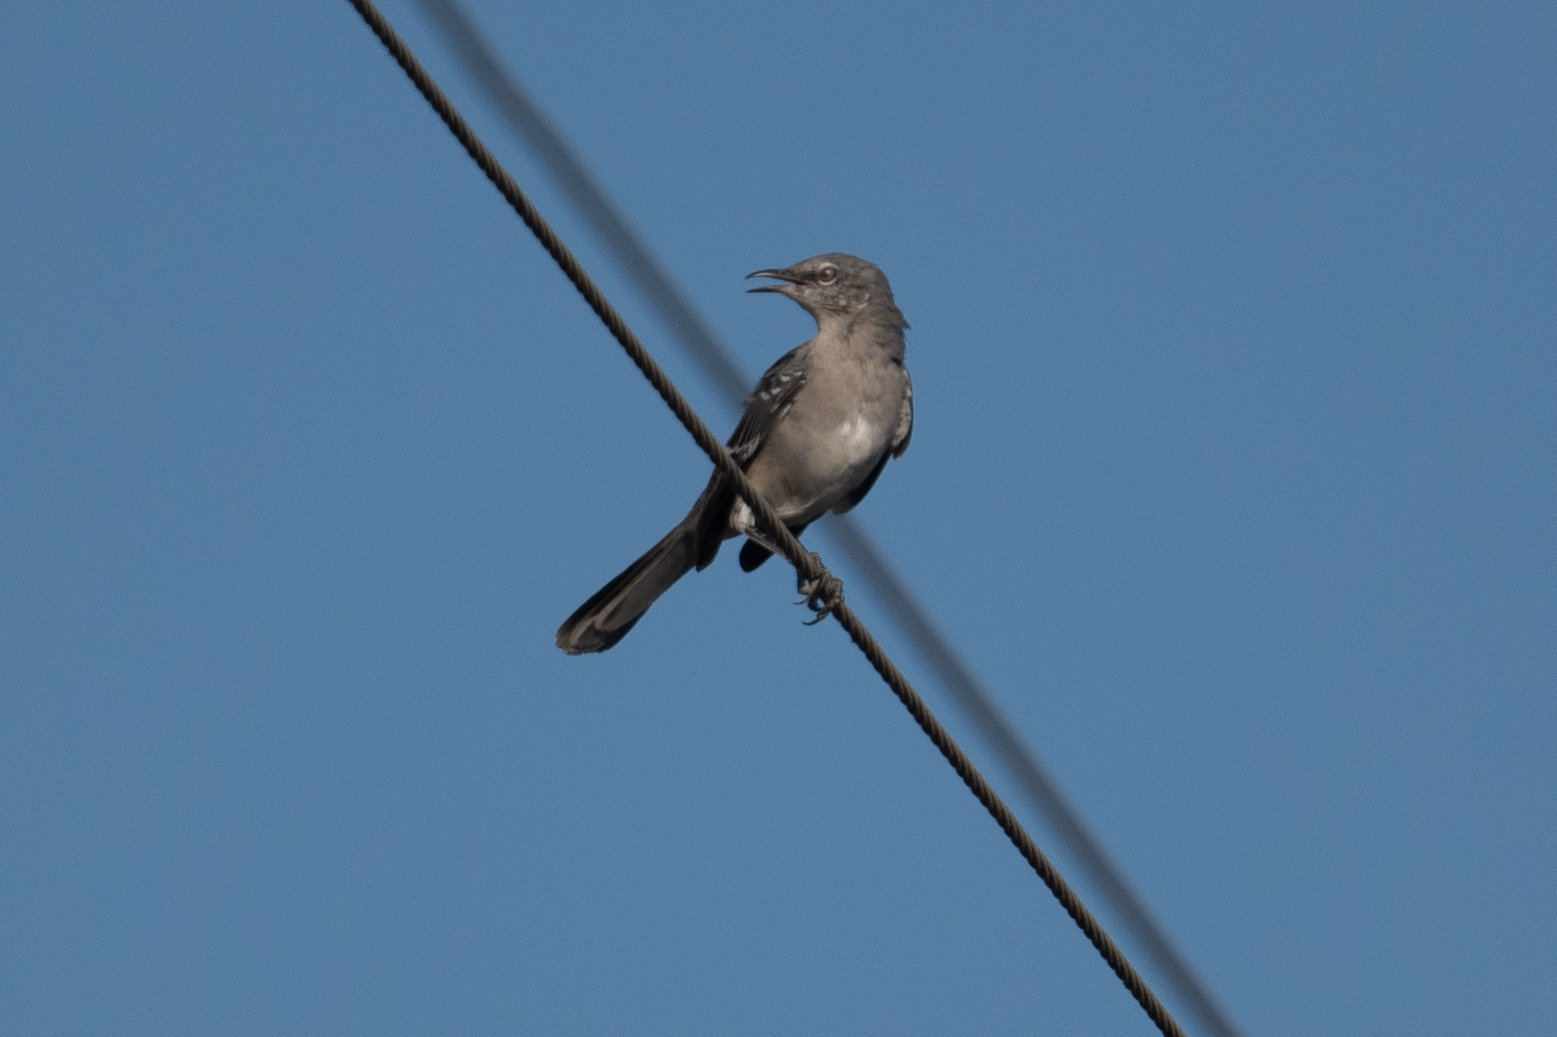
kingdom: Animalia
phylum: Chordata
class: Aves
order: Passeriformes
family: Mimidae
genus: Mimus
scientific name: Mimus polyglottos
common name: Northern mockingbird
